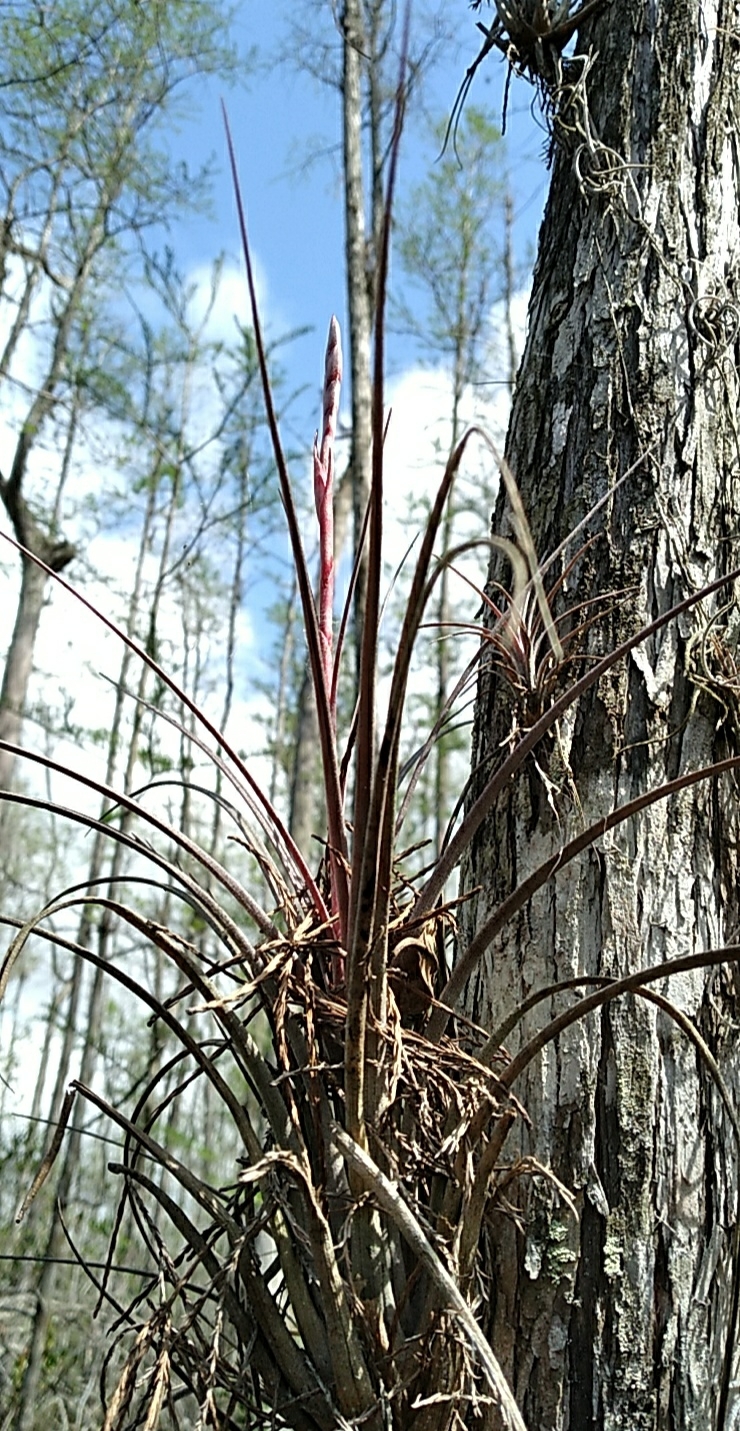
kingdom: Plantae
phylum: Tracheophyta
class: Liliopsida
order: Poales
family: Bromeliaceae
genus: Tillandsia
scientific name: Tillandsia simulata
